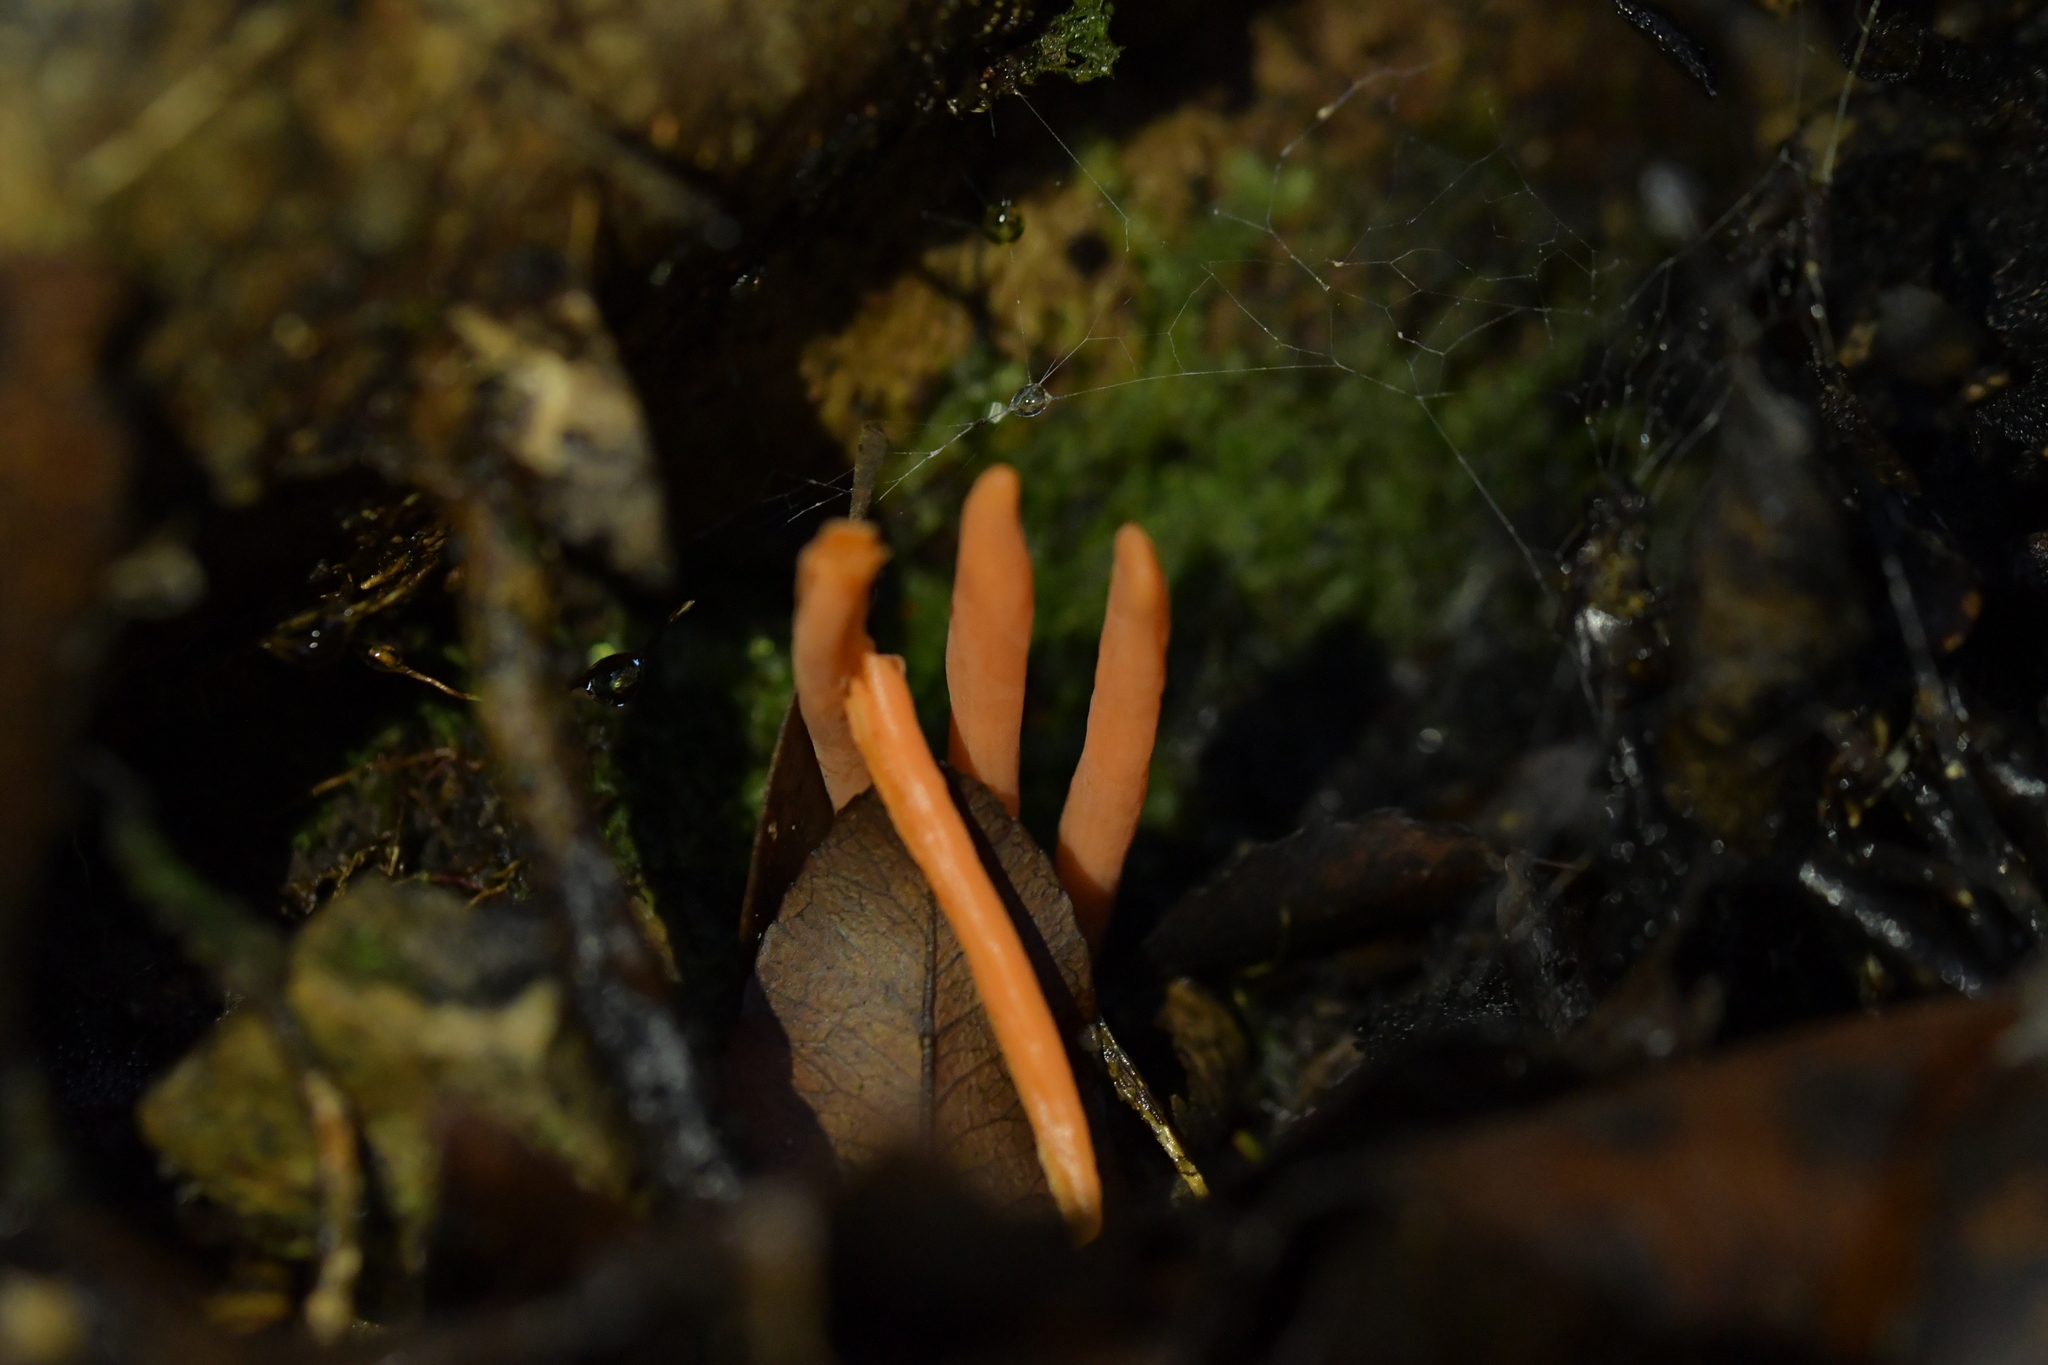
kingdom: Fungi
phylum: Basidiomycota
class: Agaricomycetes
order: Agaricales
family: Clavariaceae
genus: Clavulinopsis
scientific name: Clavulinopsis sulcata
